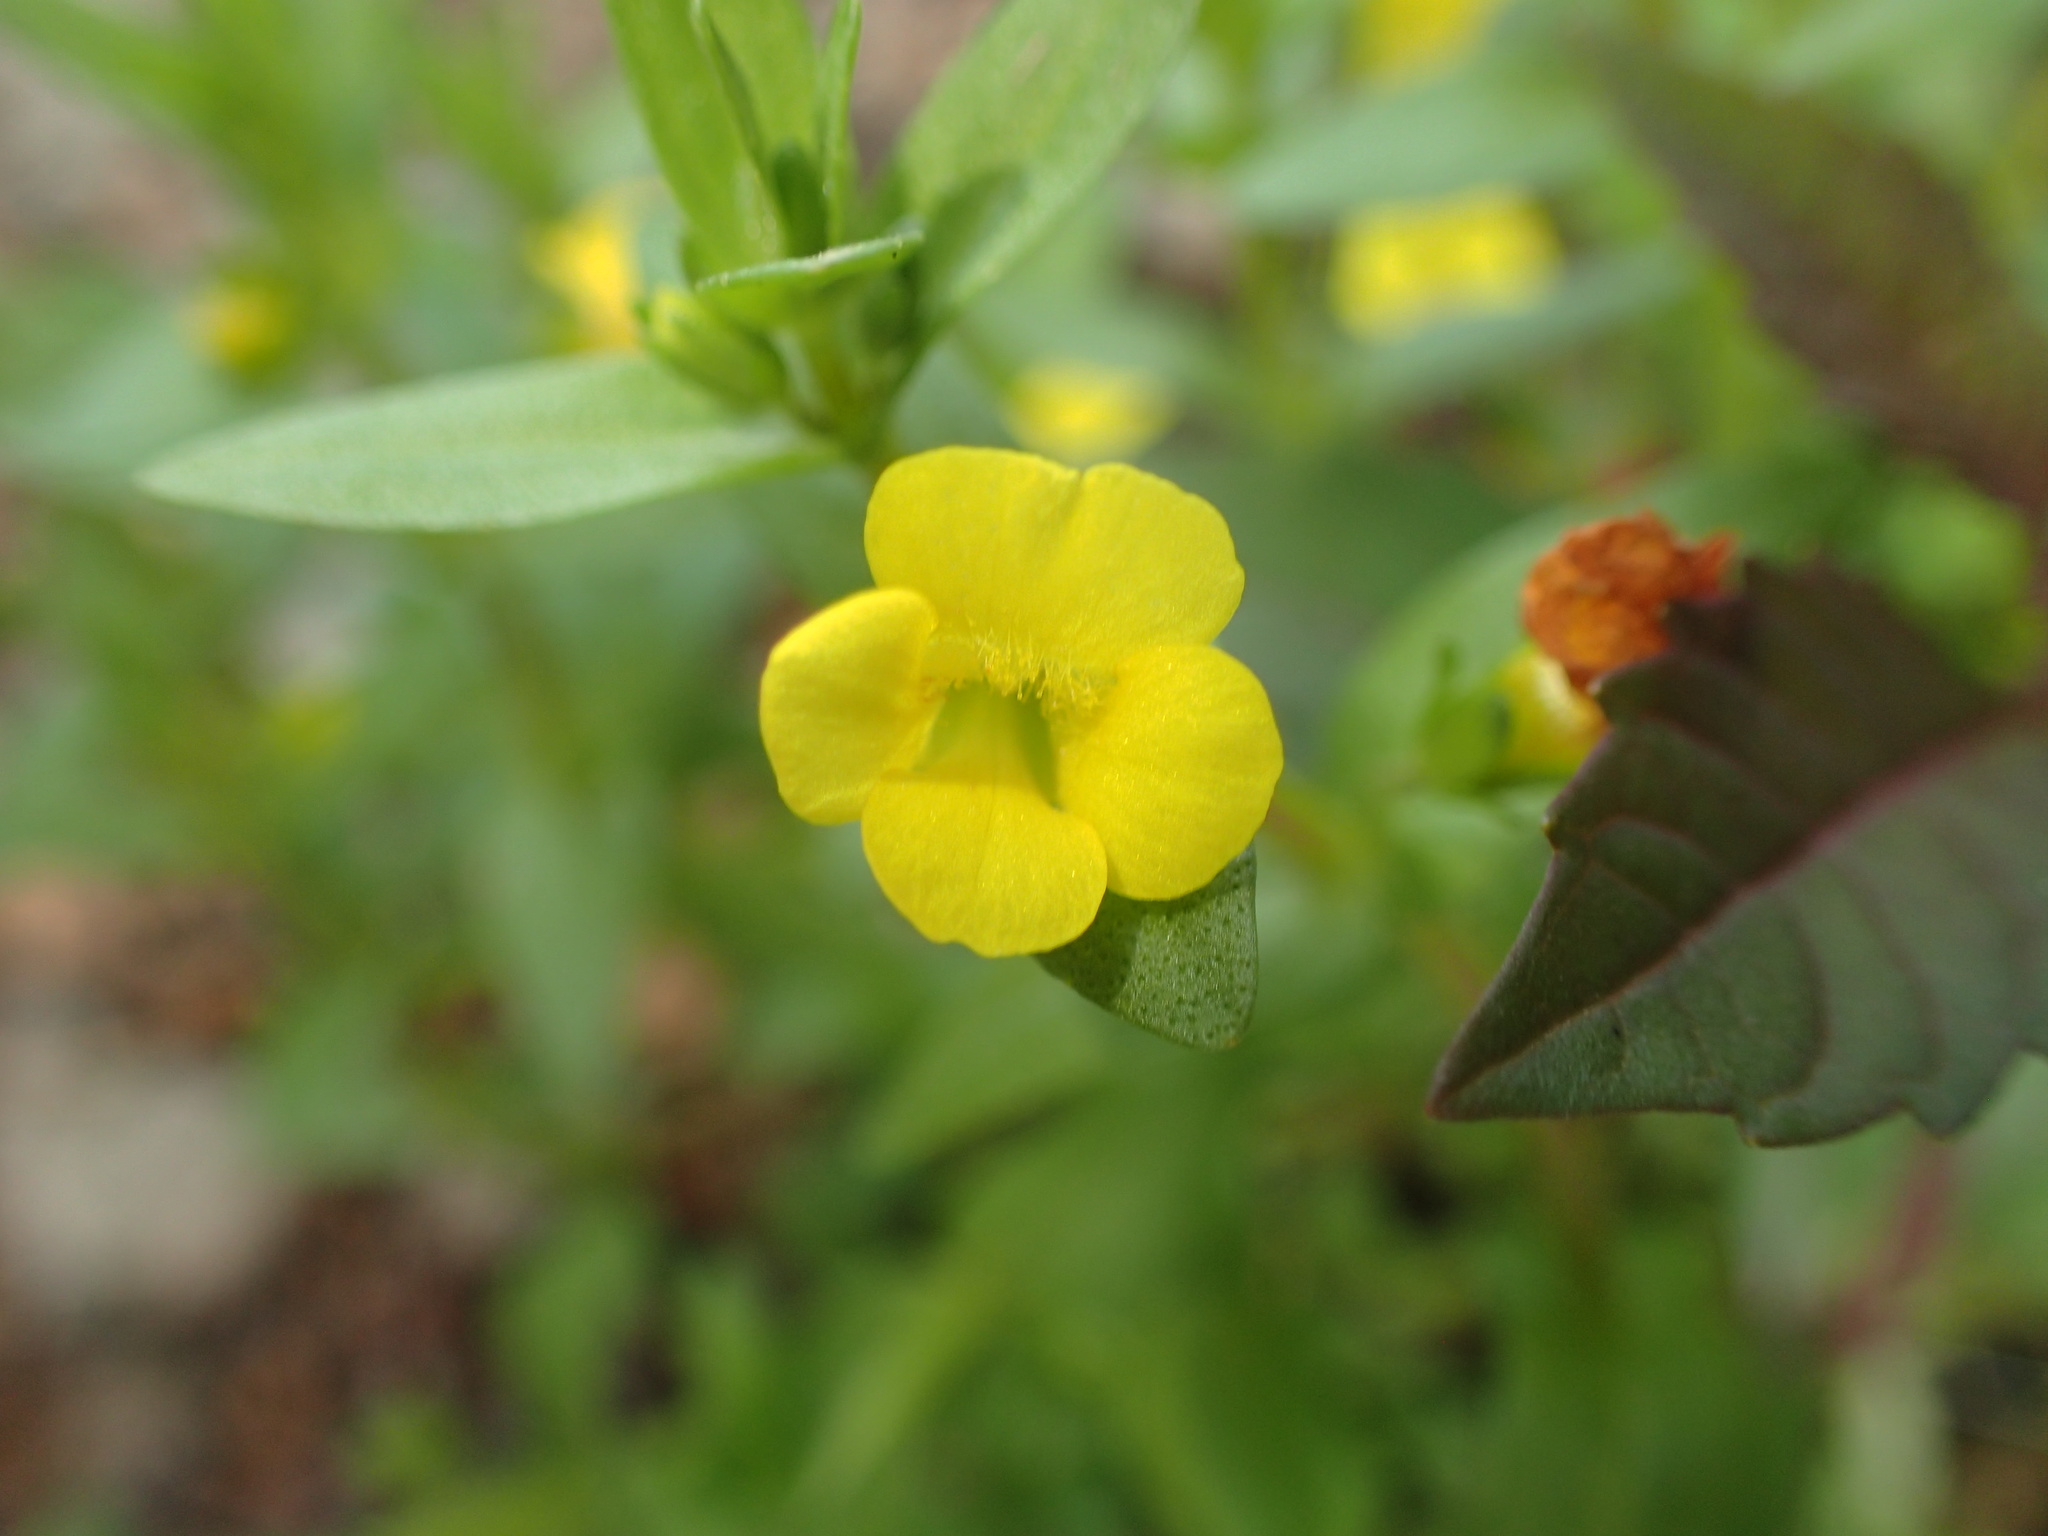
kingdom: Plantae
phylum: Tracheophyta
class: Magnoliopsida
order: Lamiales
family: Plantaginaceae
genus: Gratiola
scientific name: Gratiola lutea
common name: Golden hedge-hyssop
